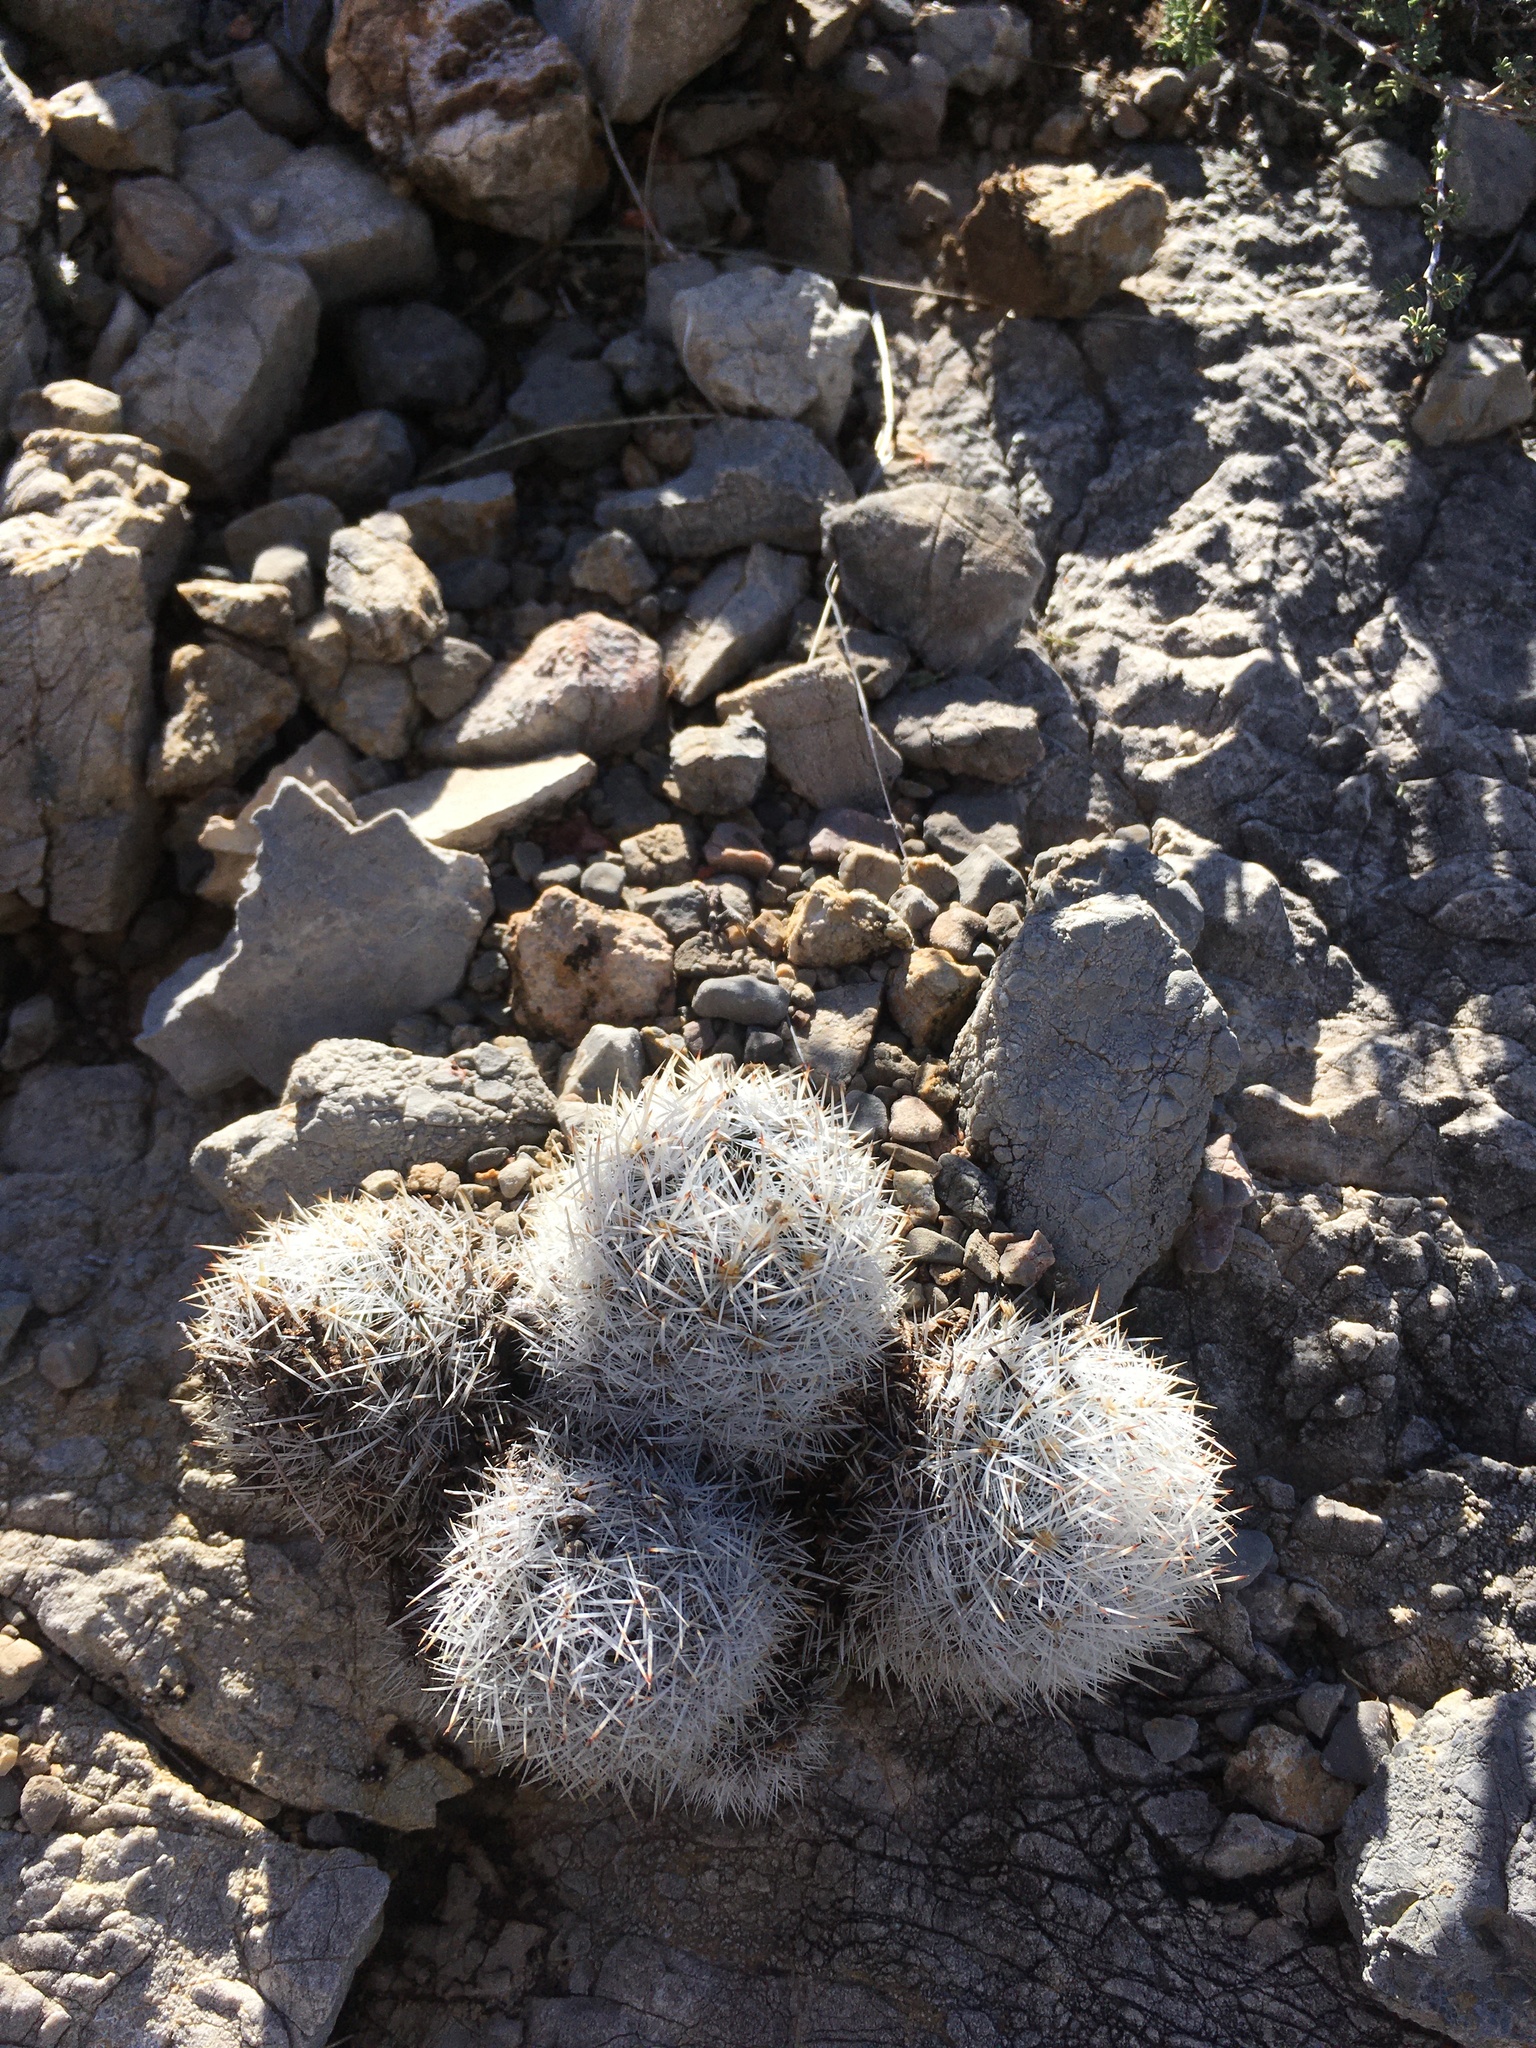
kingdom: Plantae
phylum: Tracheophyta
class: Magnoliopsida
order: Caryophyllales
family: Cactaceae
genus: Pelecyphora
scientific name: Pelecyphora sneedii
